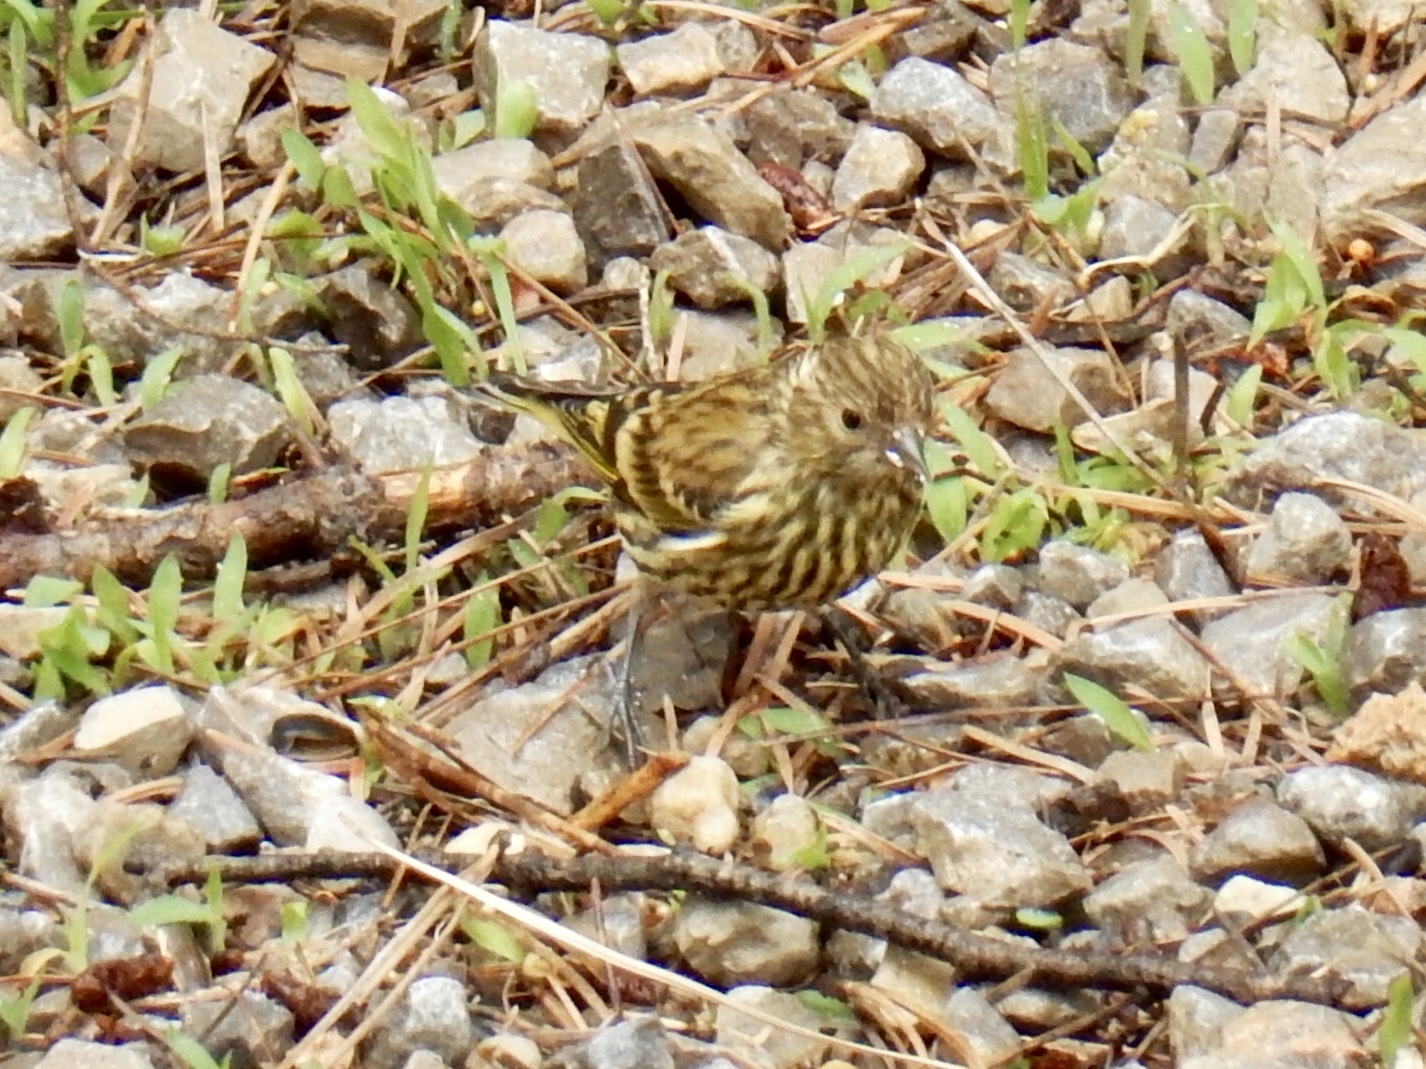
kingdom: Animalia
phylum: Chordata
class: Aves
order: Passeriformes
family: Fringillidae
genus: Spinus
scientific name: Spinus pinus
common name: Pine siskin
